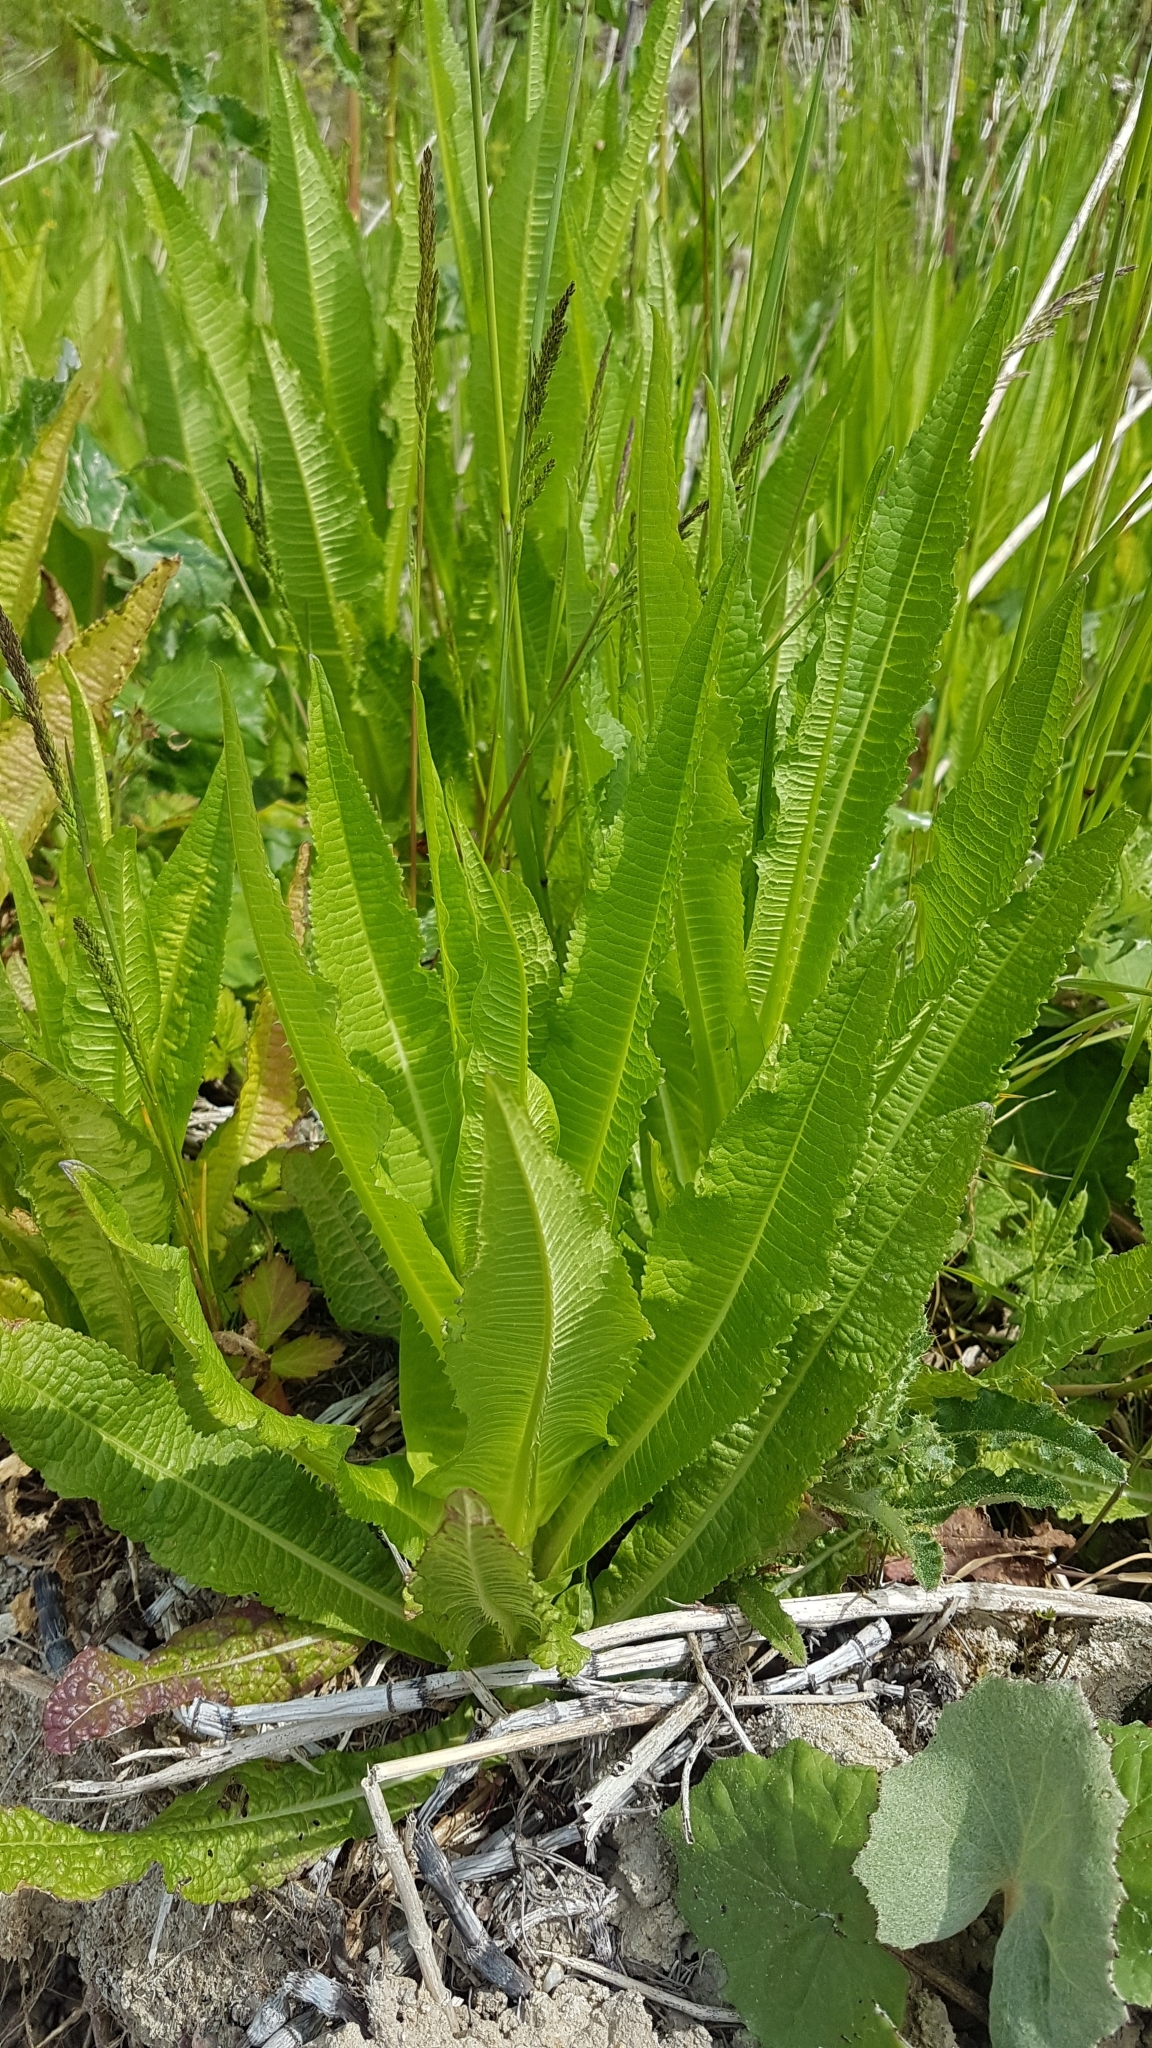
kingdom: Plantae
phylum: Tracheophyta
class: Magnoliopsida
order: Dipsacales
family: Caprifoliaceae
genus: Dipsacus
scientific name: Dipsacus fullonum
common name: Teasel
